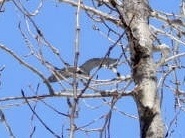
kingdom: Animalia
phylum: Chordata
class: Aves
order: Pelecaniformes
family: Ardeidae
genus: Ardea
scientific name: Ardea herodias
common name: Great blue heron
